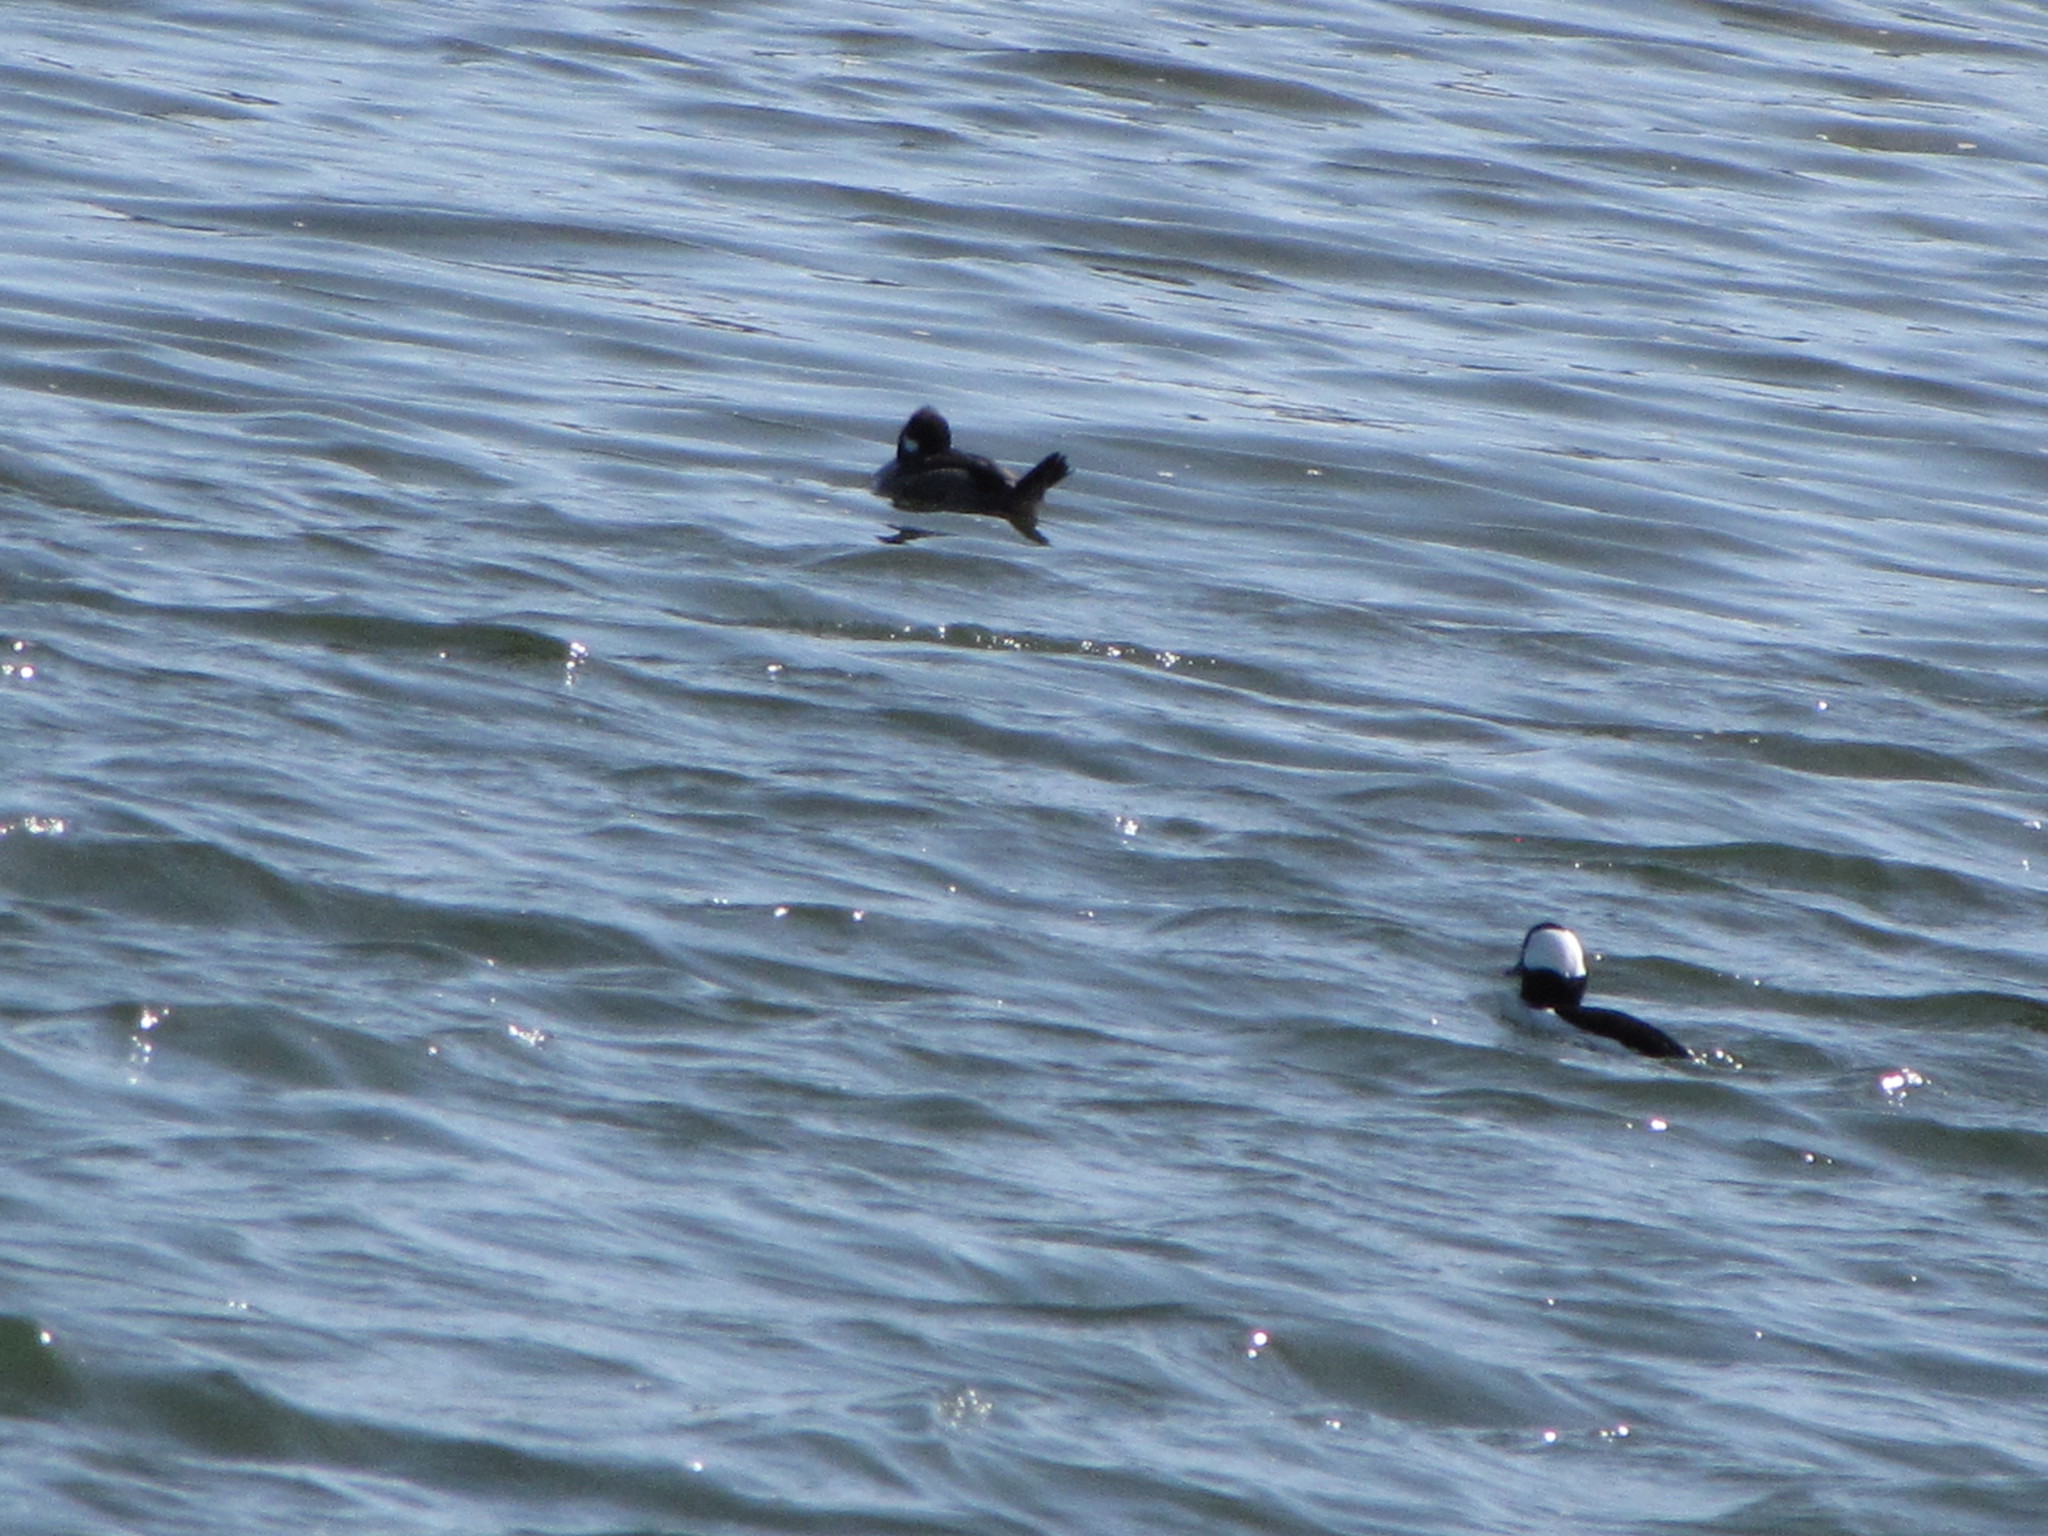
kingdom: Animalia
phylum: Chordata
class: Aves
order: Anseriformes
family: Anatidae
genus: Bucephala
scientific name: Bucephala albeola
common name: Bufflehead
